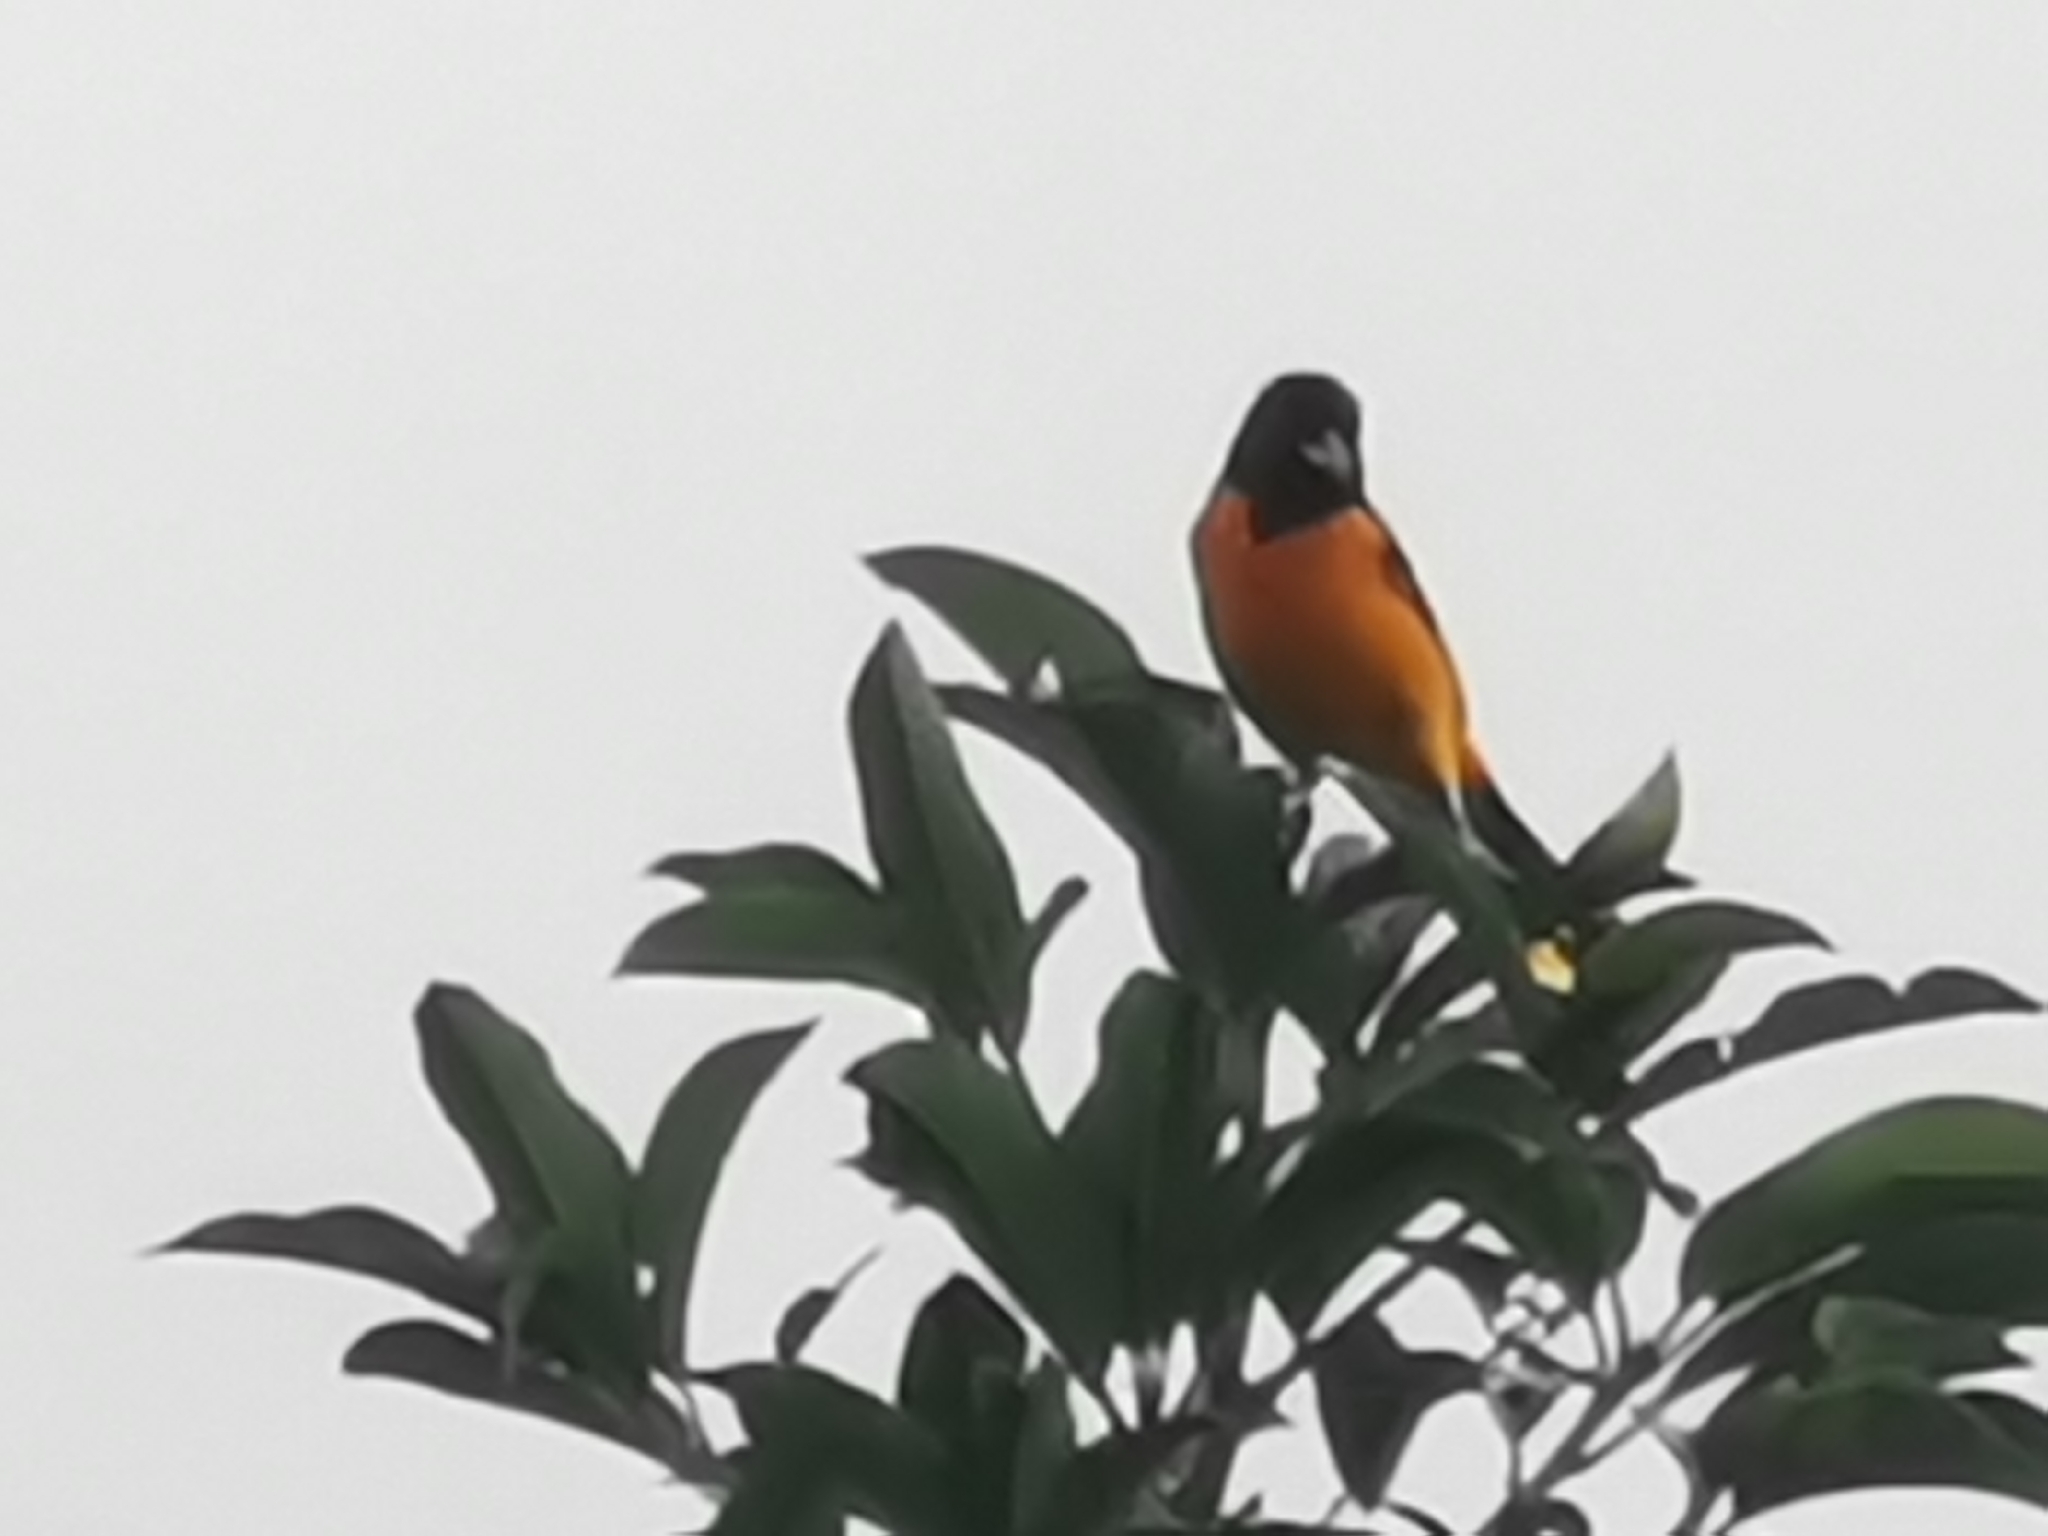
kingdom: Animalia
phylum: Chordata
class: Aves
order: Passeriformes
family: Icteridae
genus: Icterus
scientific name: Icterus galbula
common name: Baltimore oriole
